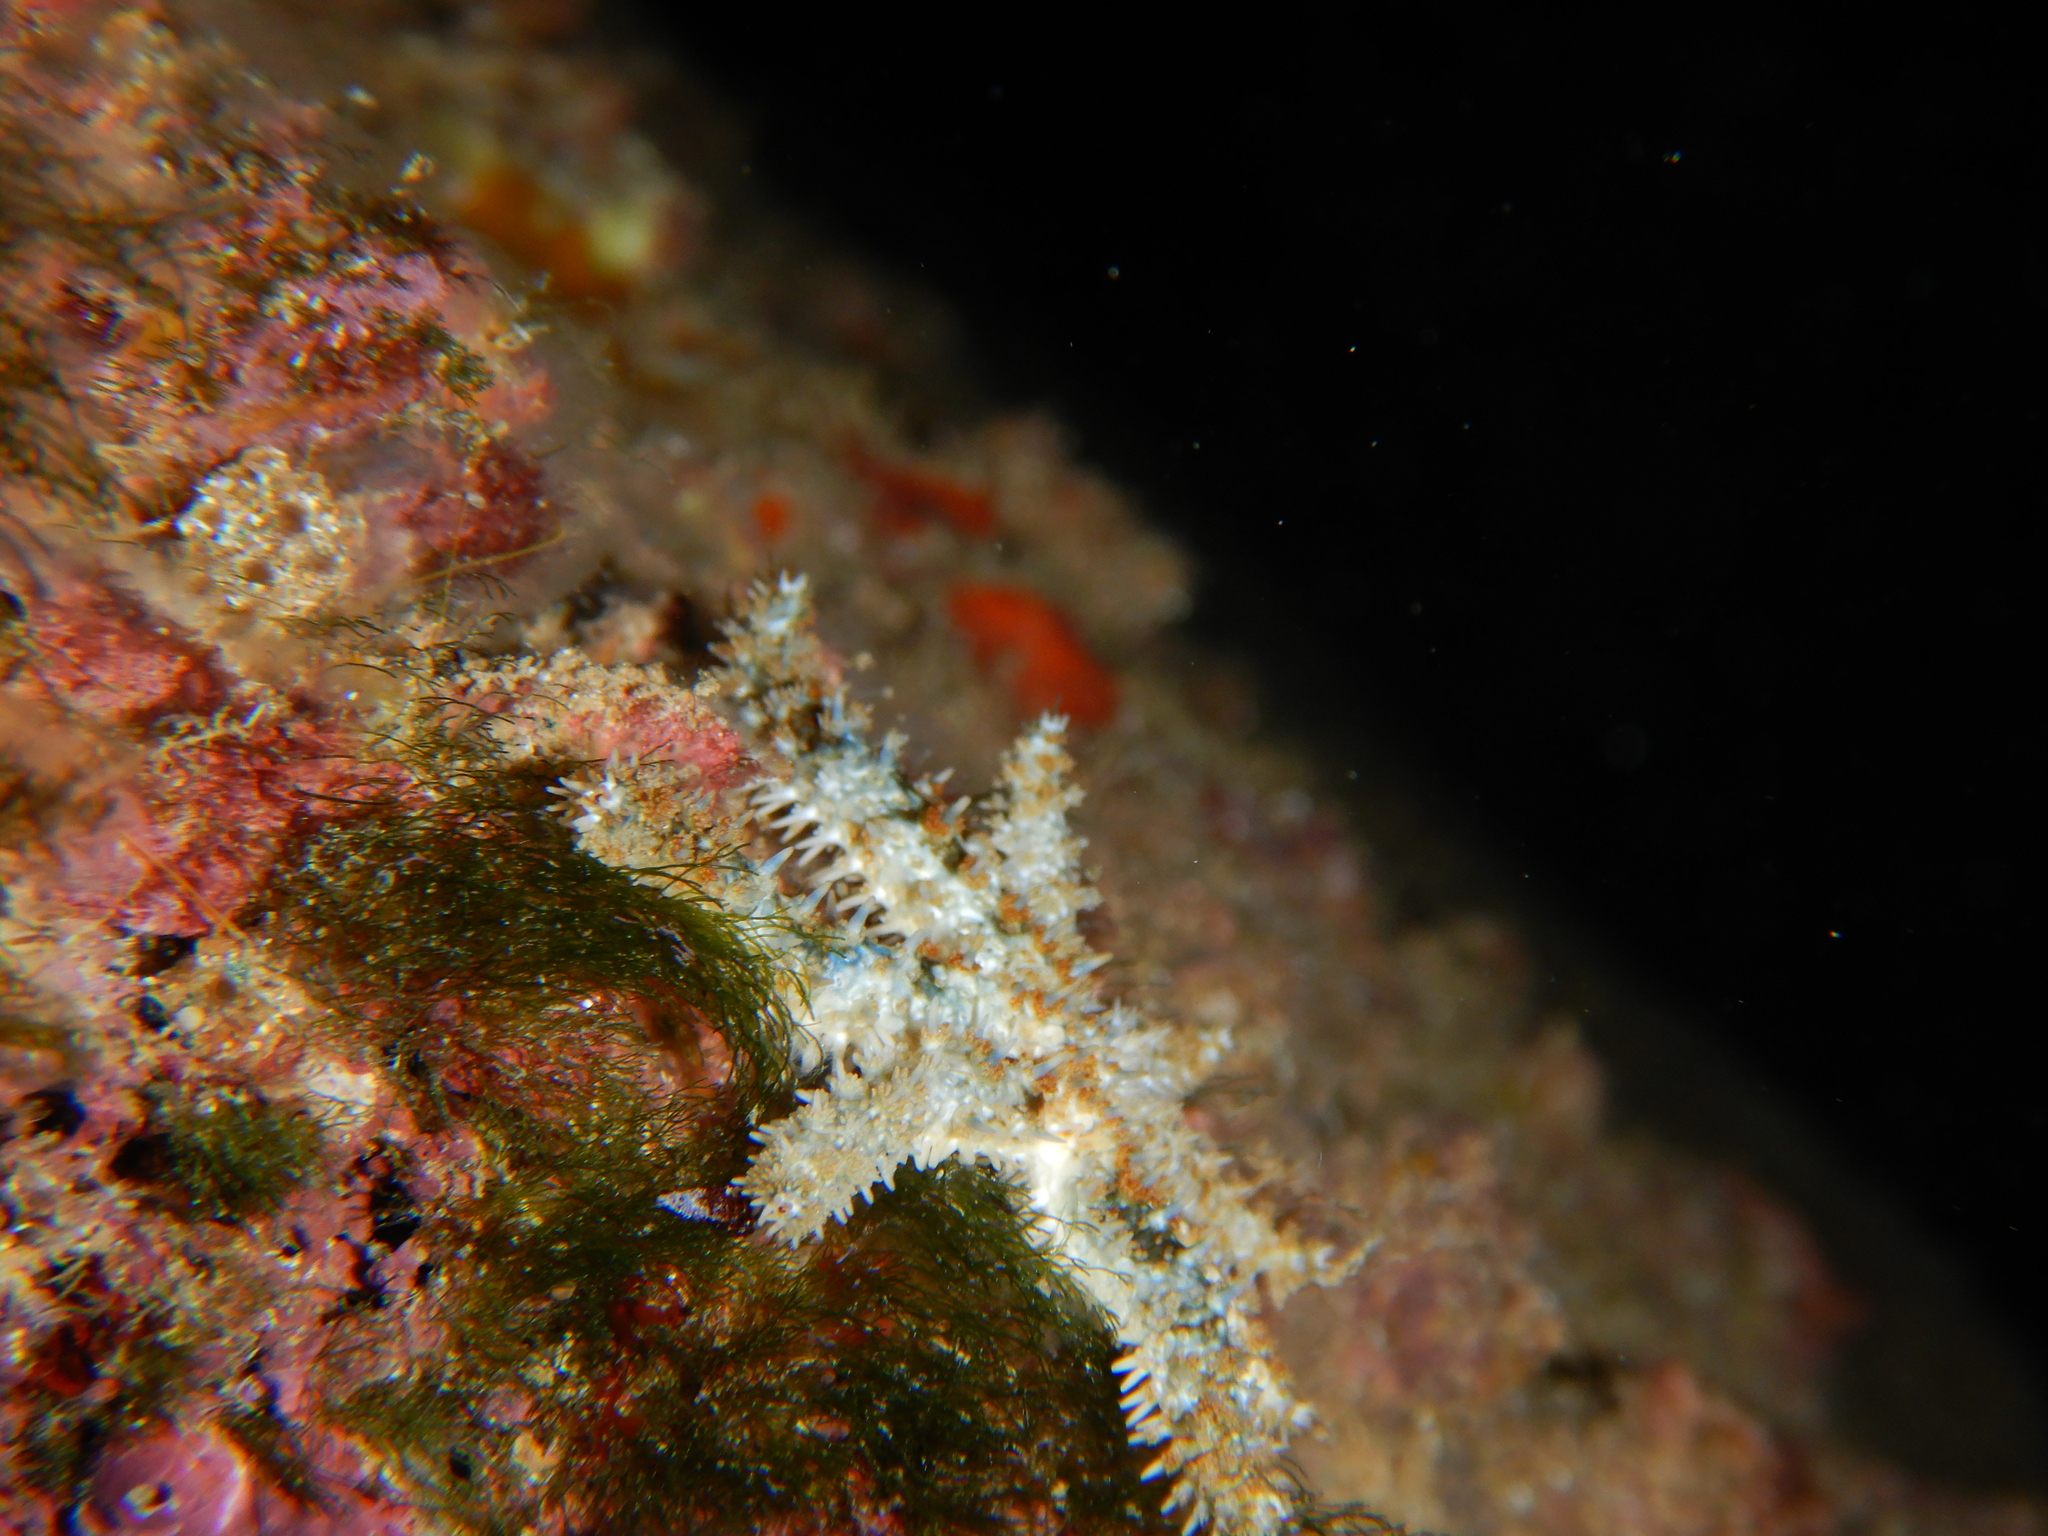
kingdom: Animalia
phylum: Echinodermata
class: Asteroidea
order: Forcipulatida
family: Asteriidae
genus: Coscinasterias
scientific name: Coscinasterias tenuispina
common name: Blue spiny starfish
